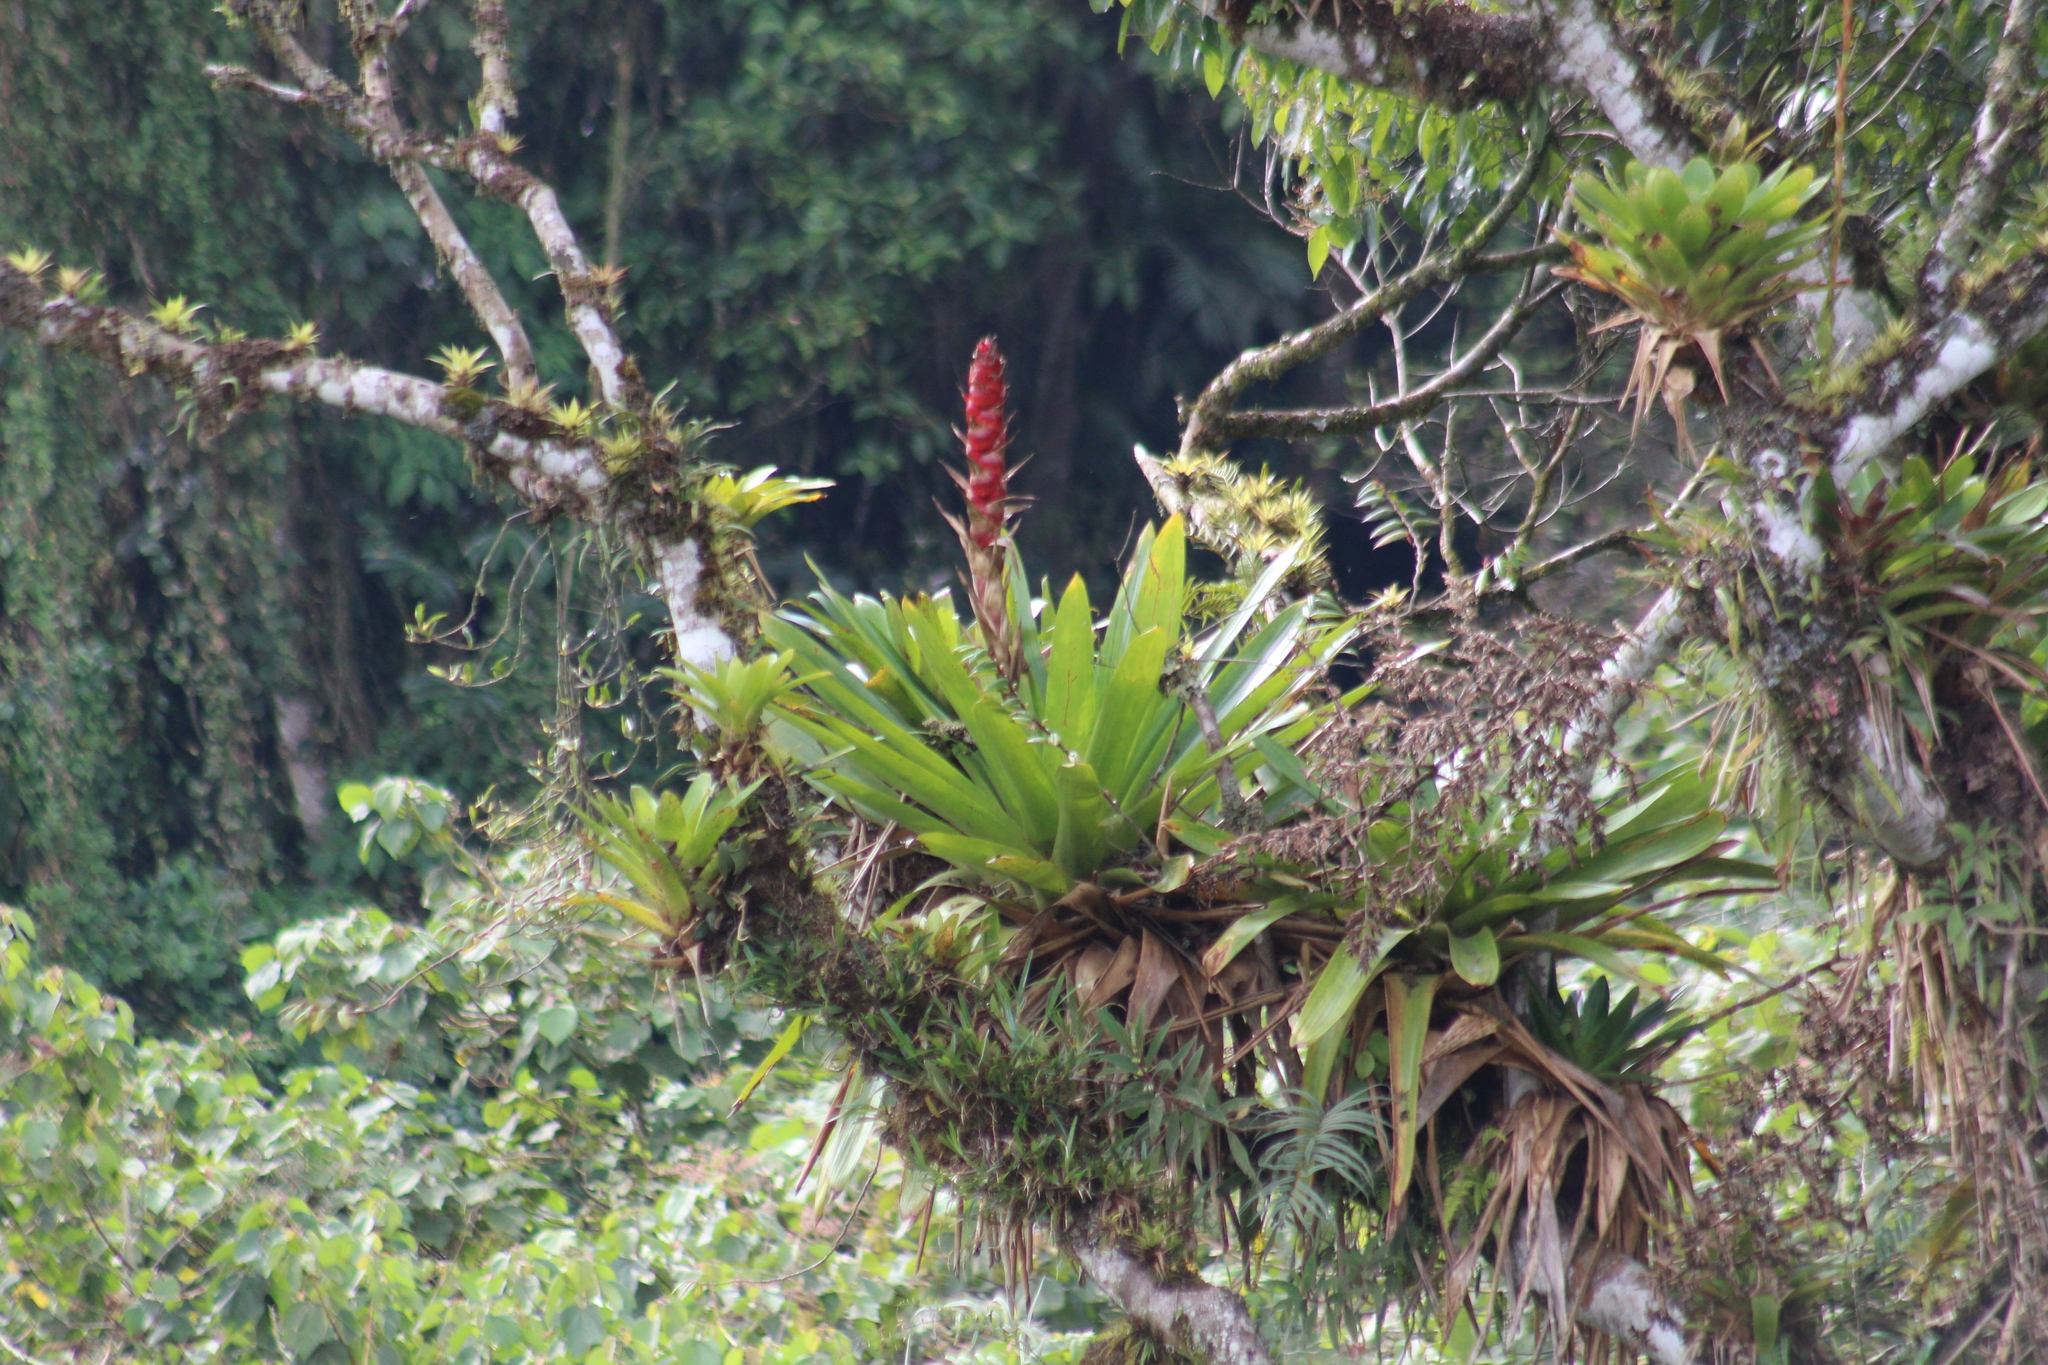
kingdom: Plantae
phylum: Tracheophyta
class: Liliopsida
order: Poales
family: Bromeliaceae
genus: Cipuropsis
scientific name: Cipuropsis capituligera
